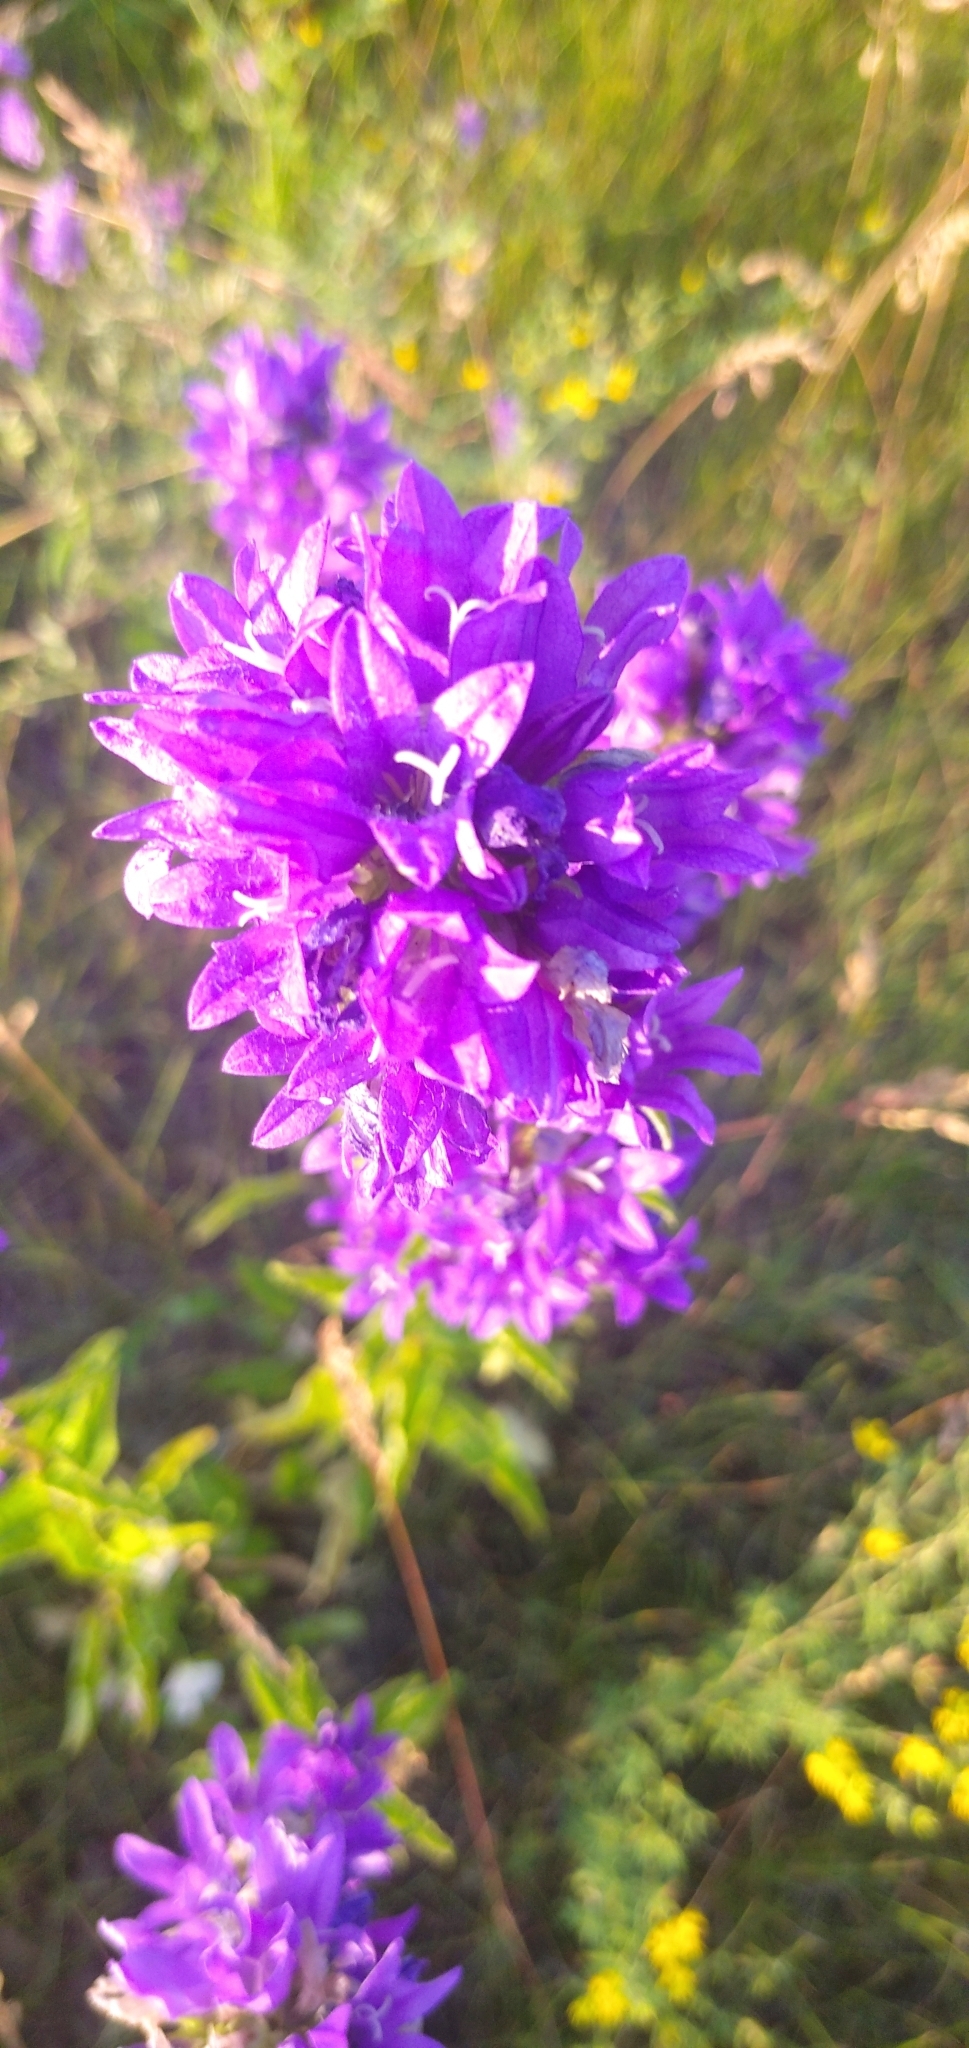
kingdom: Plantae
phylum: Tracheophyta
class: Magnoliopsida
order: Asterales
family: Campanulaceae
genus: Campanula
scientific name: Campanula glomerata
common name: Clustered bellflower
